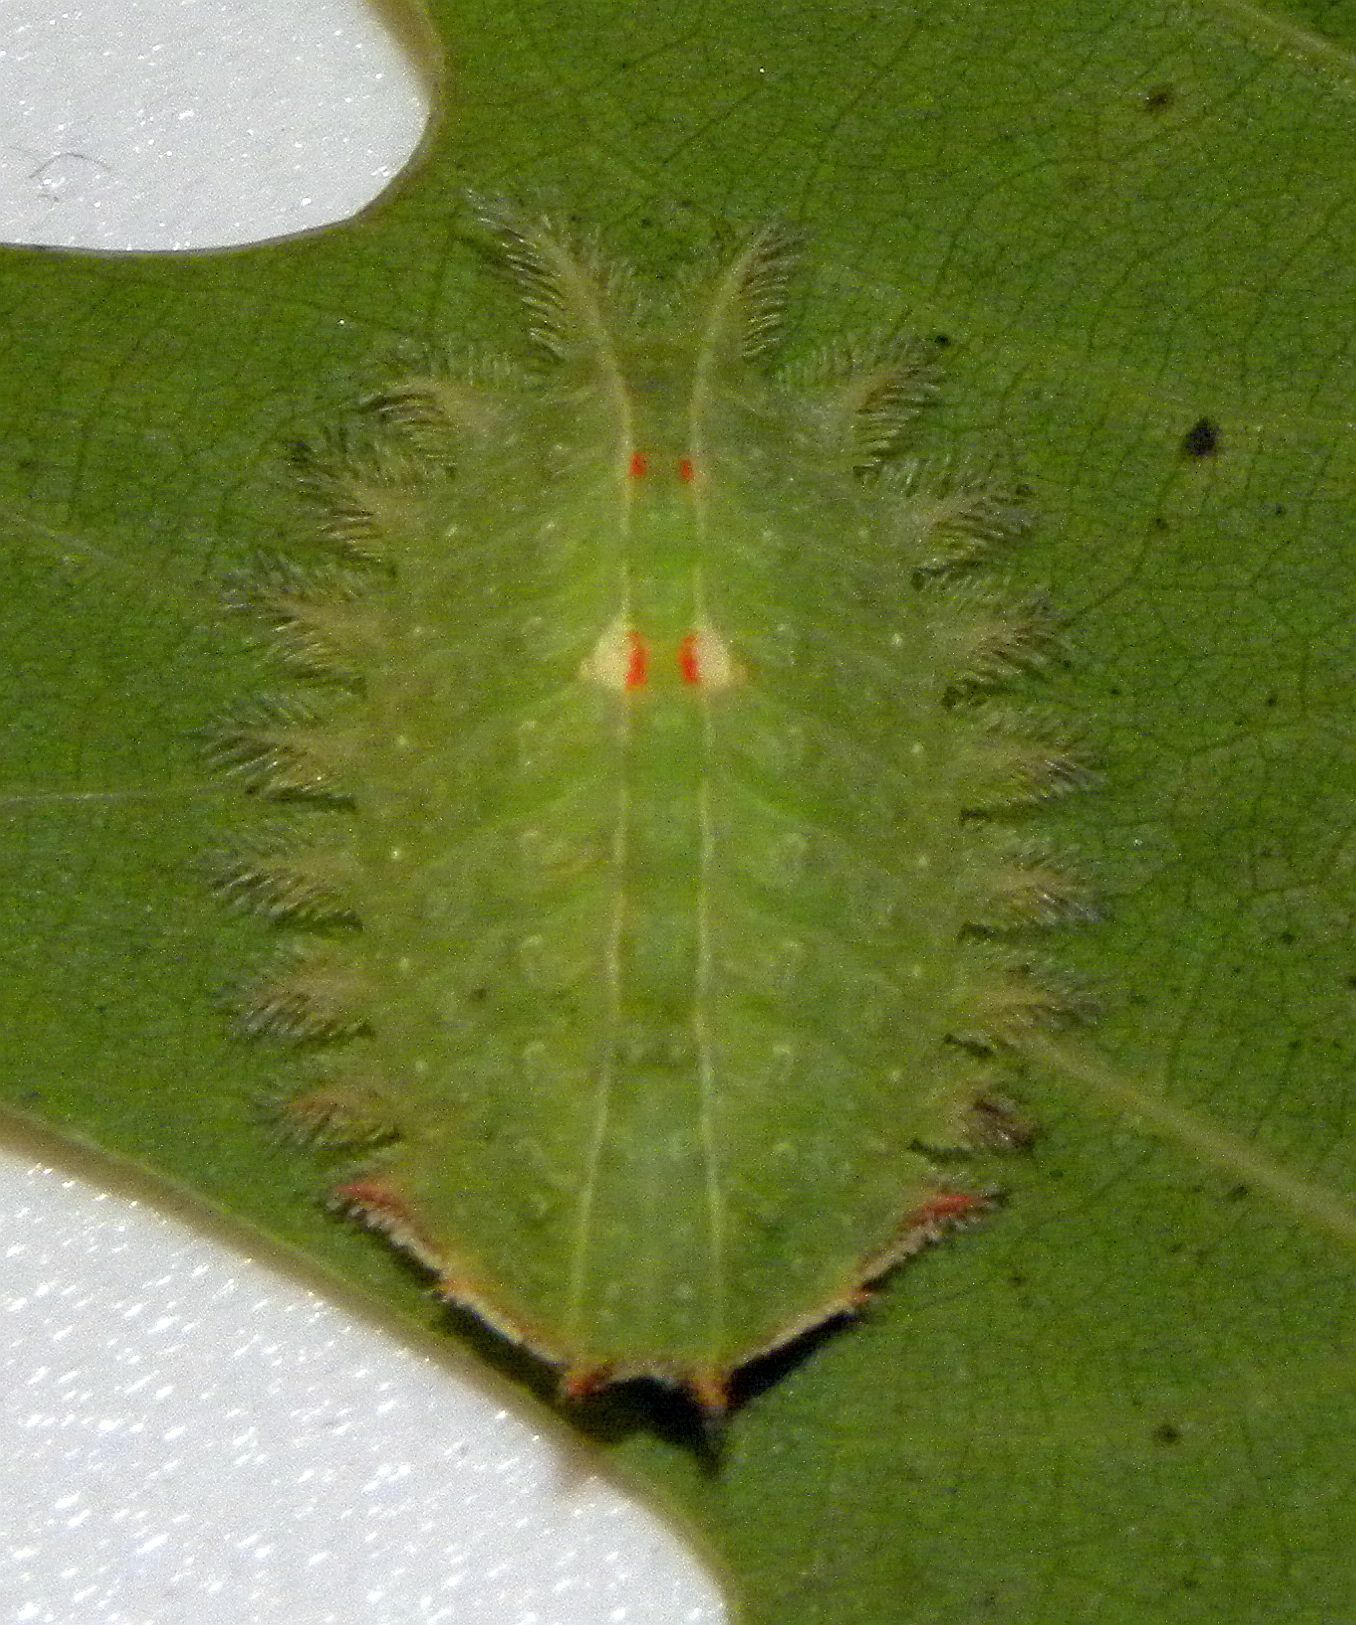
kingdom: Animalia
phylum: Arthropoda
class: Insecta
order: Lepidoptera
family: Limacodidae
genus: Isa
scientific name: Isa textula
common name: Crowned slug moth
